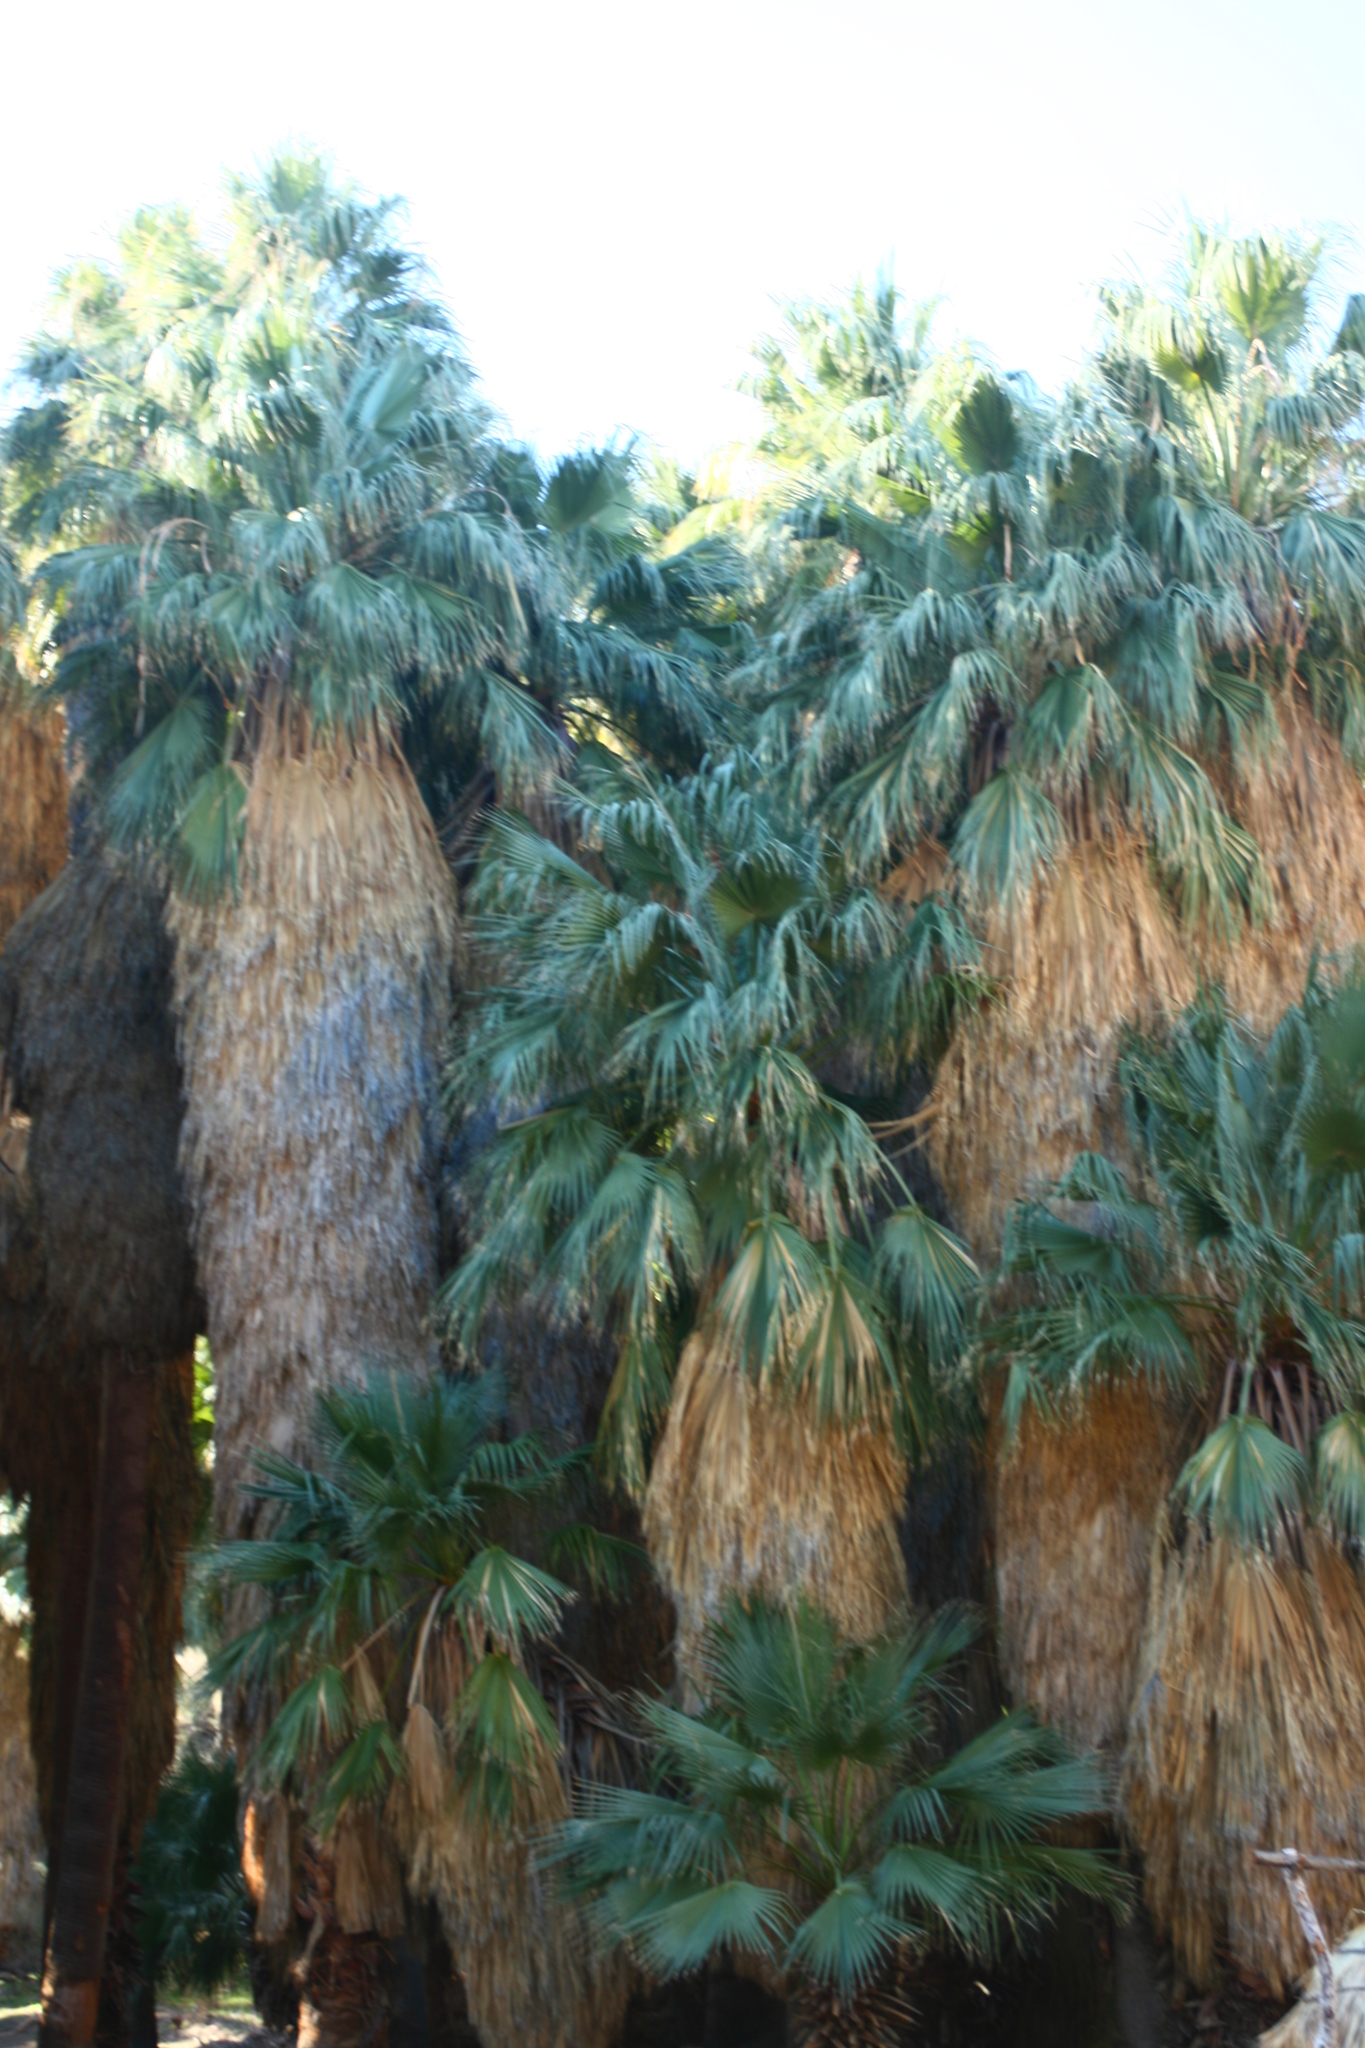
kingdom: Plantae
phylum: Tracheophyta
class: Liliopsida
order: Arecales
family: Arecaceae
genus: Washingtonia
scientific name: Washingtonia filifera
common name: California fan palm
